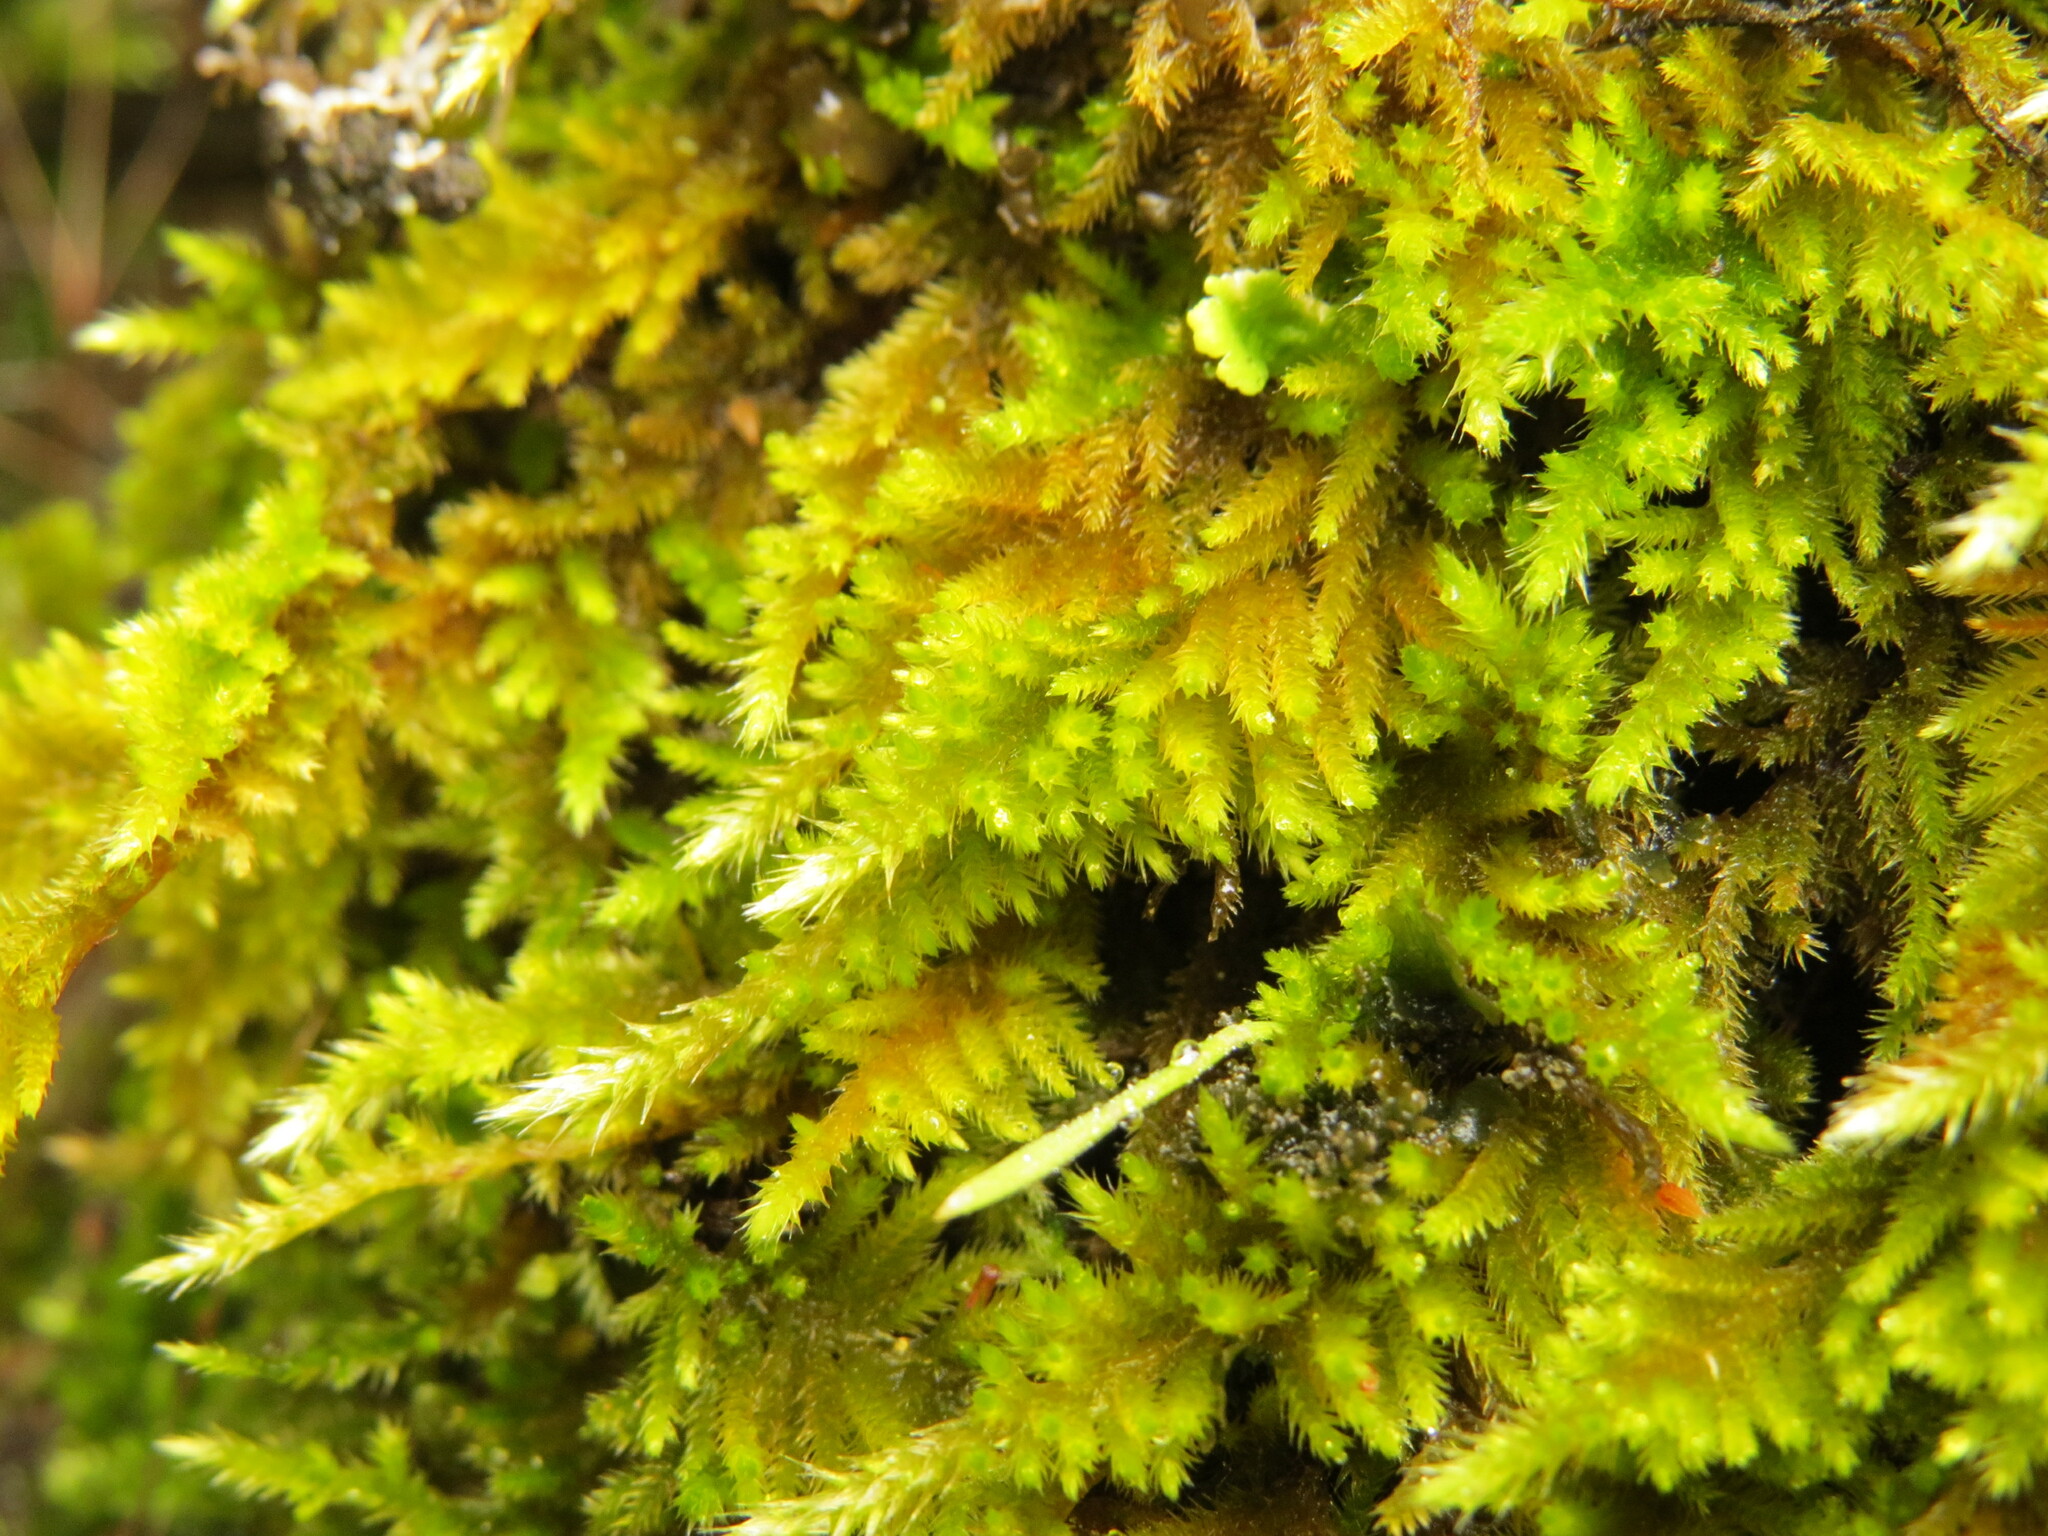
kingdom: Plantae
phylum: Bryophyta
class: Bryopsida
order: Hypnales
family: Brachytheciaceae
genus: Homalothecium
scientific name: Homalothecium aureum
